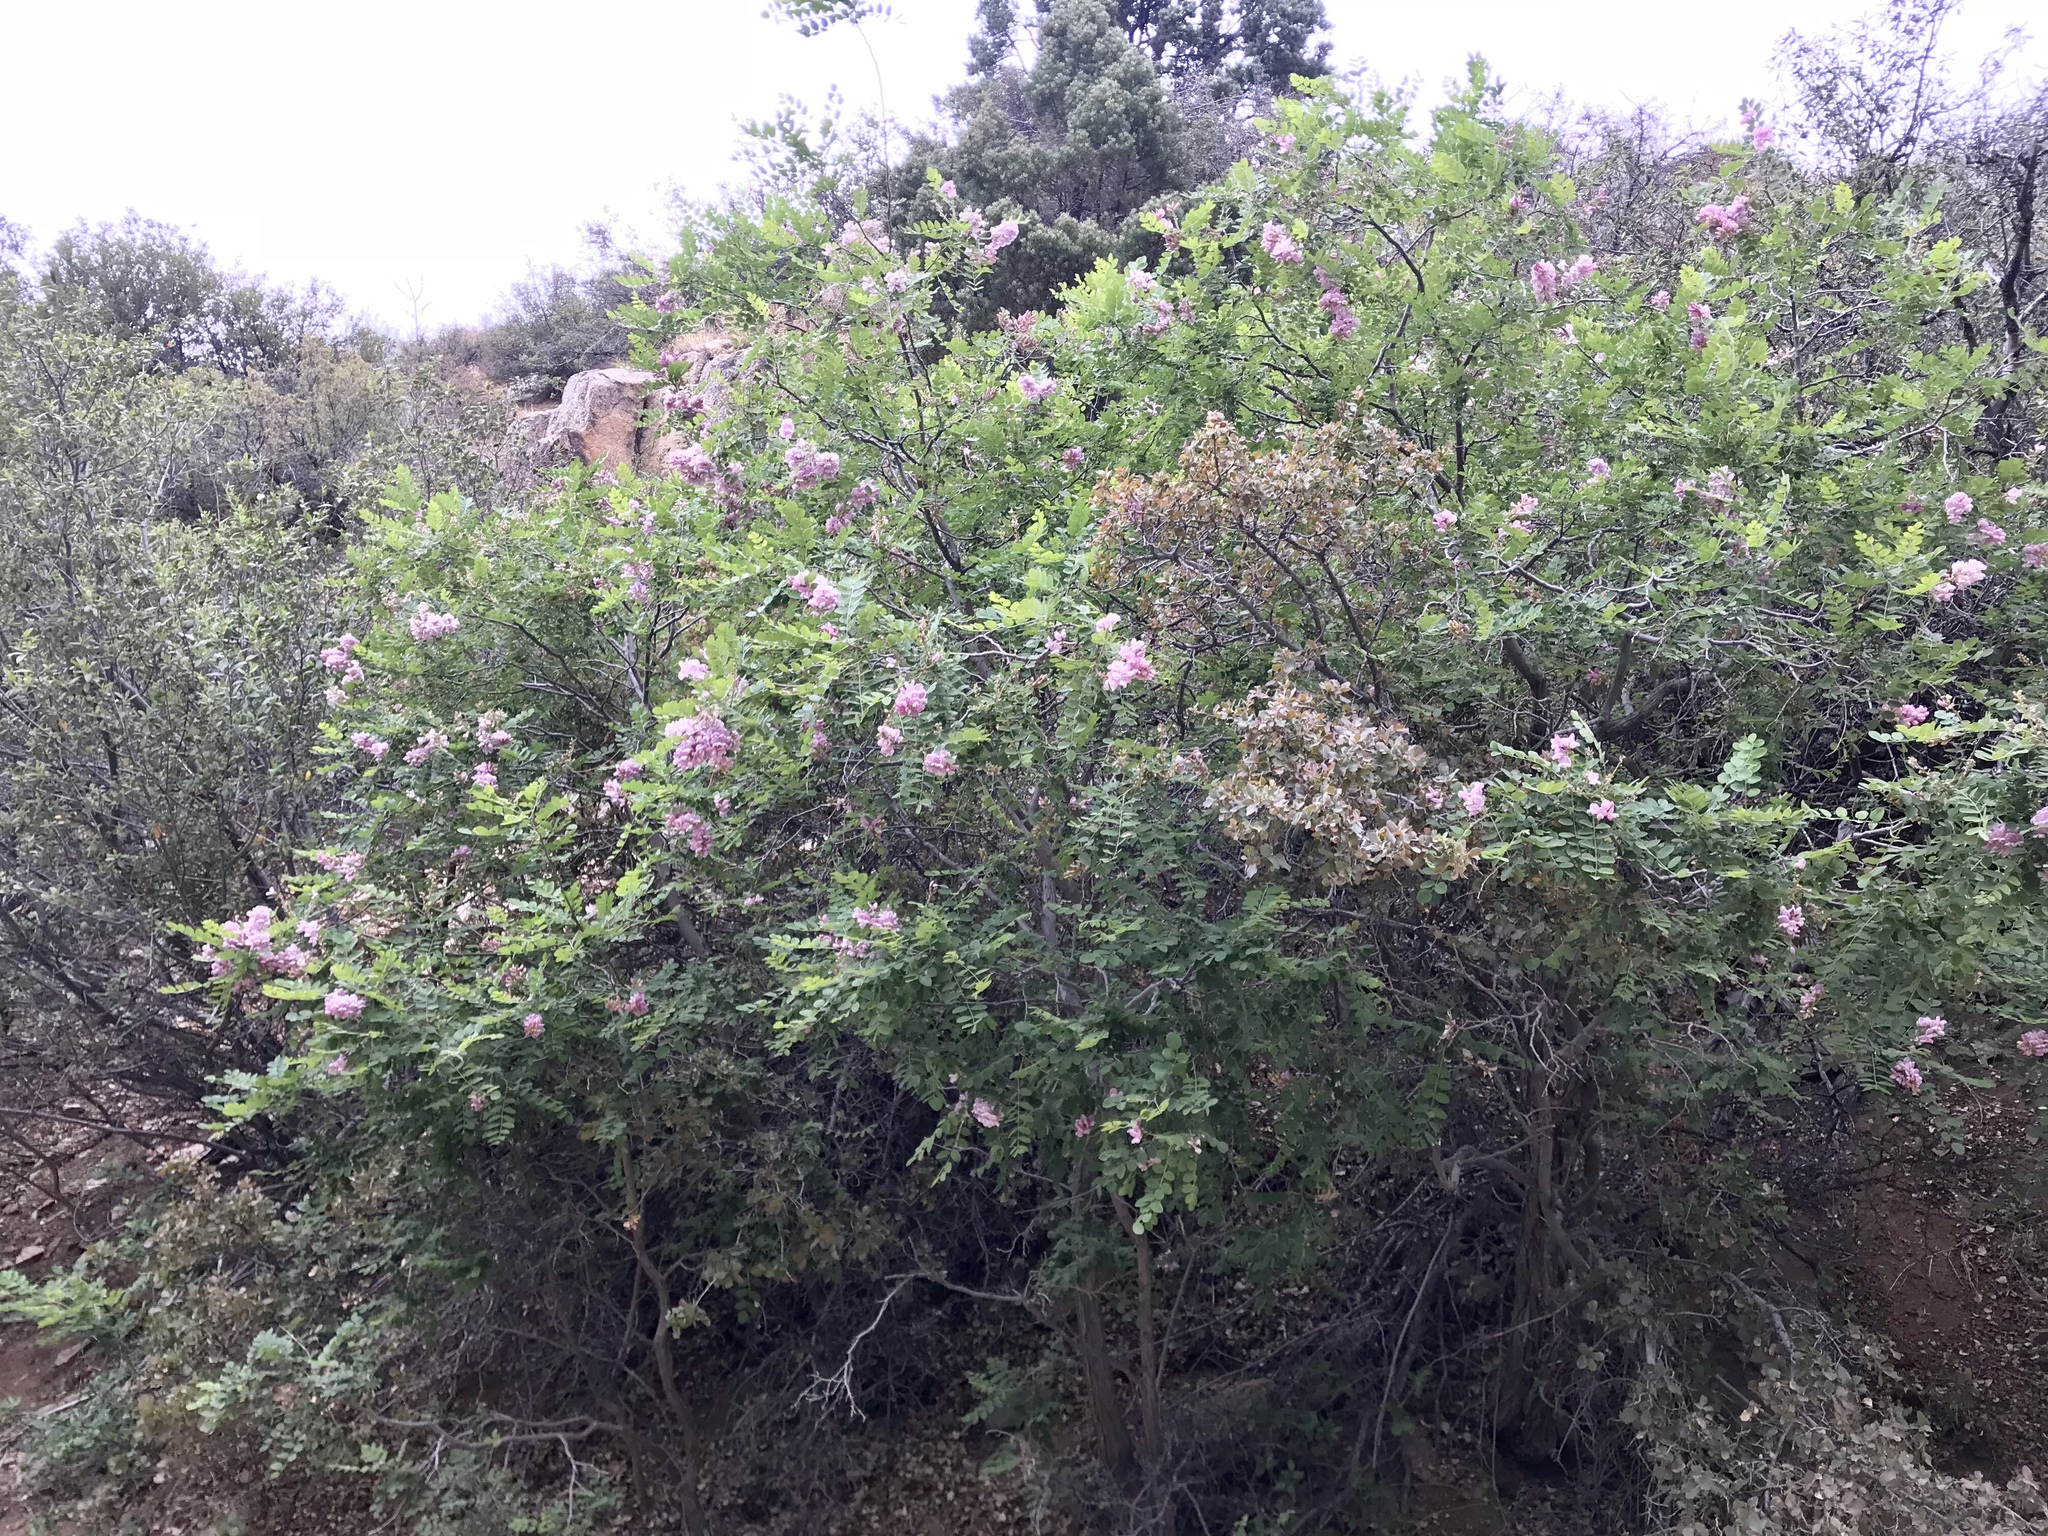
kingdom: Plantae
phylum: Tracheophyta
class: Magnoliopsida
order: Fabales
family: Fabaceae
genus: Robinia
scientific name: Robinia neomexicana
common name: New mexico locust
